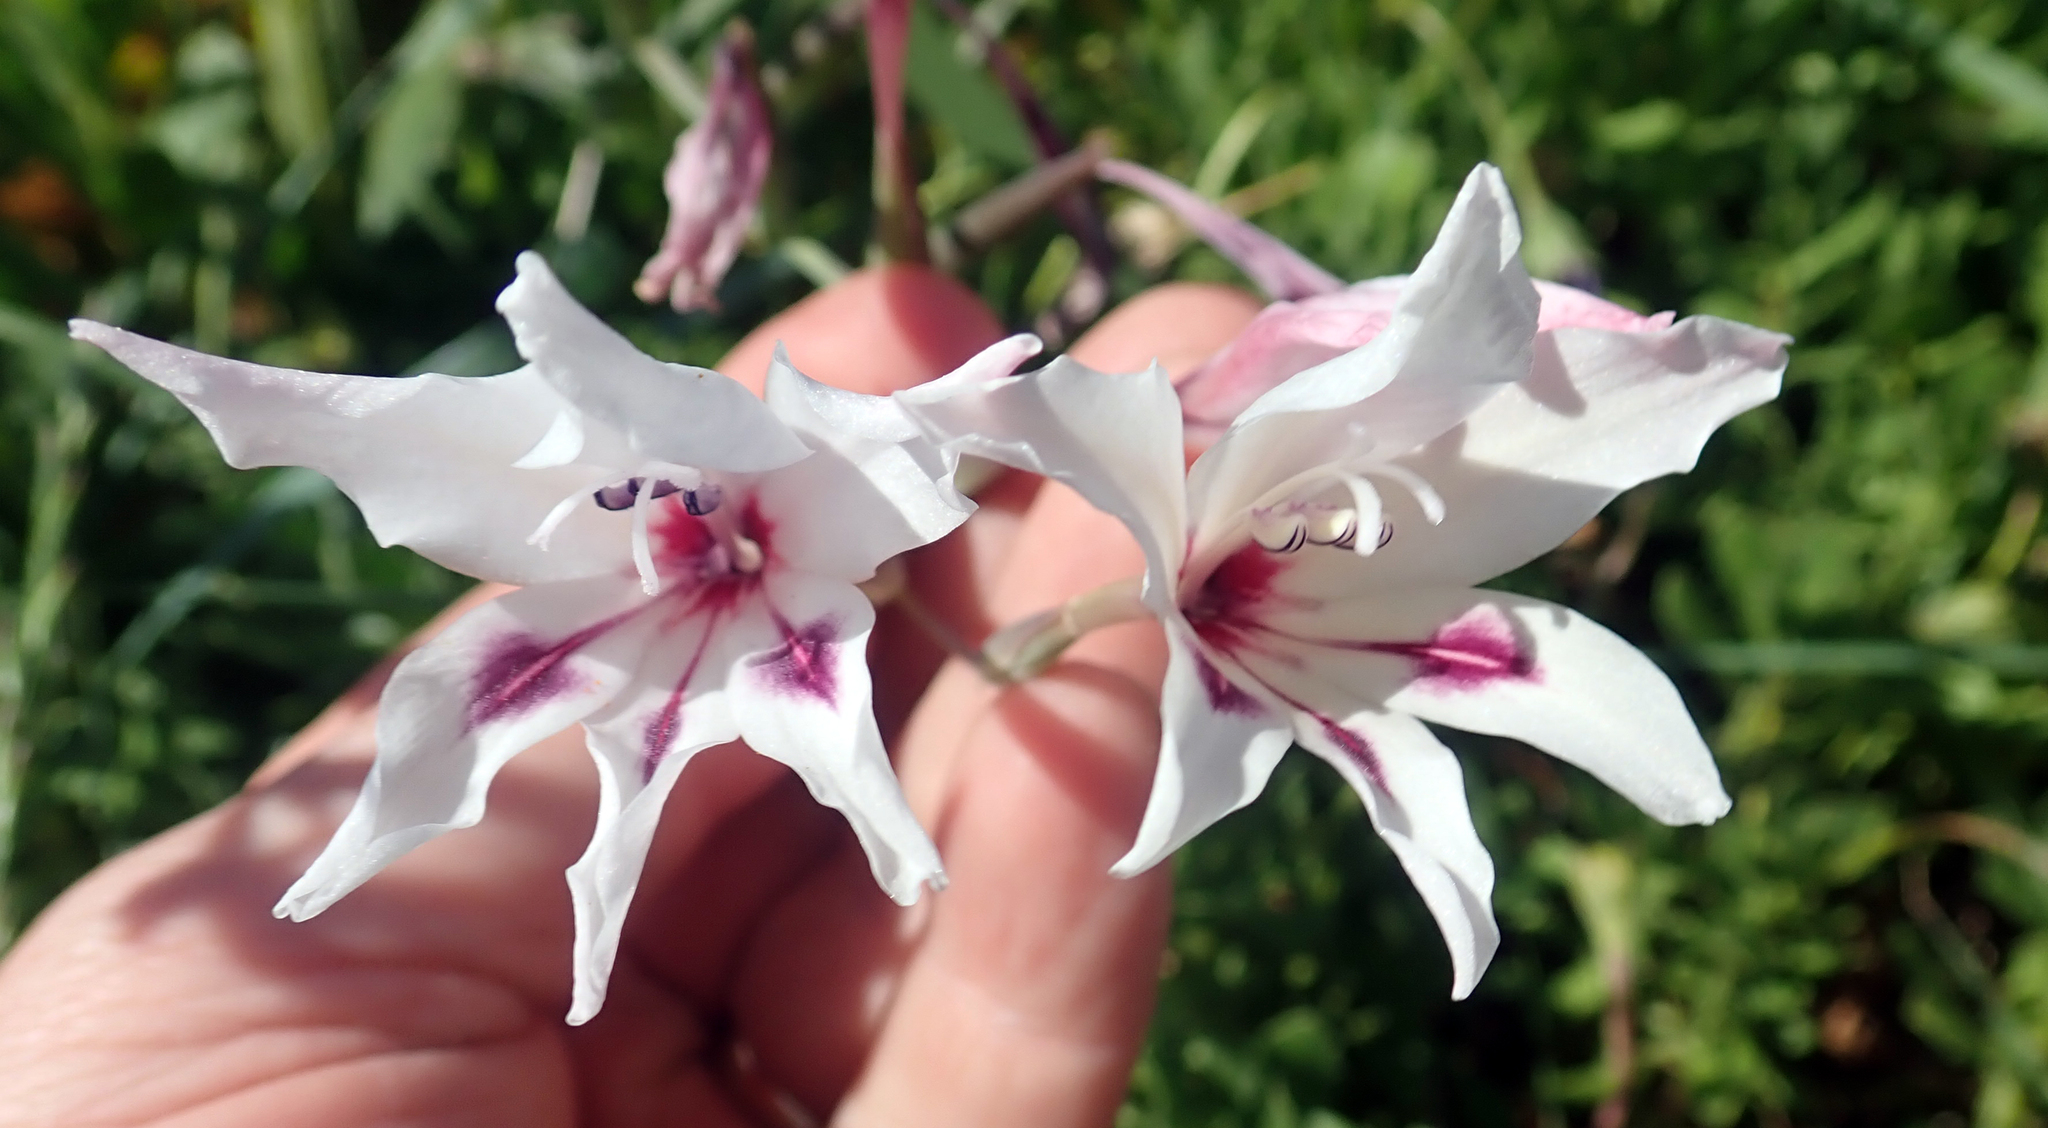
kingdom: Plantae
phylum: Tracheophyta
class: Liliopsida
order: Asparagales
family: Iridaceae
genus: Gladiolus
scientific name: Gladiolus carneus
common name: Painted-lady
